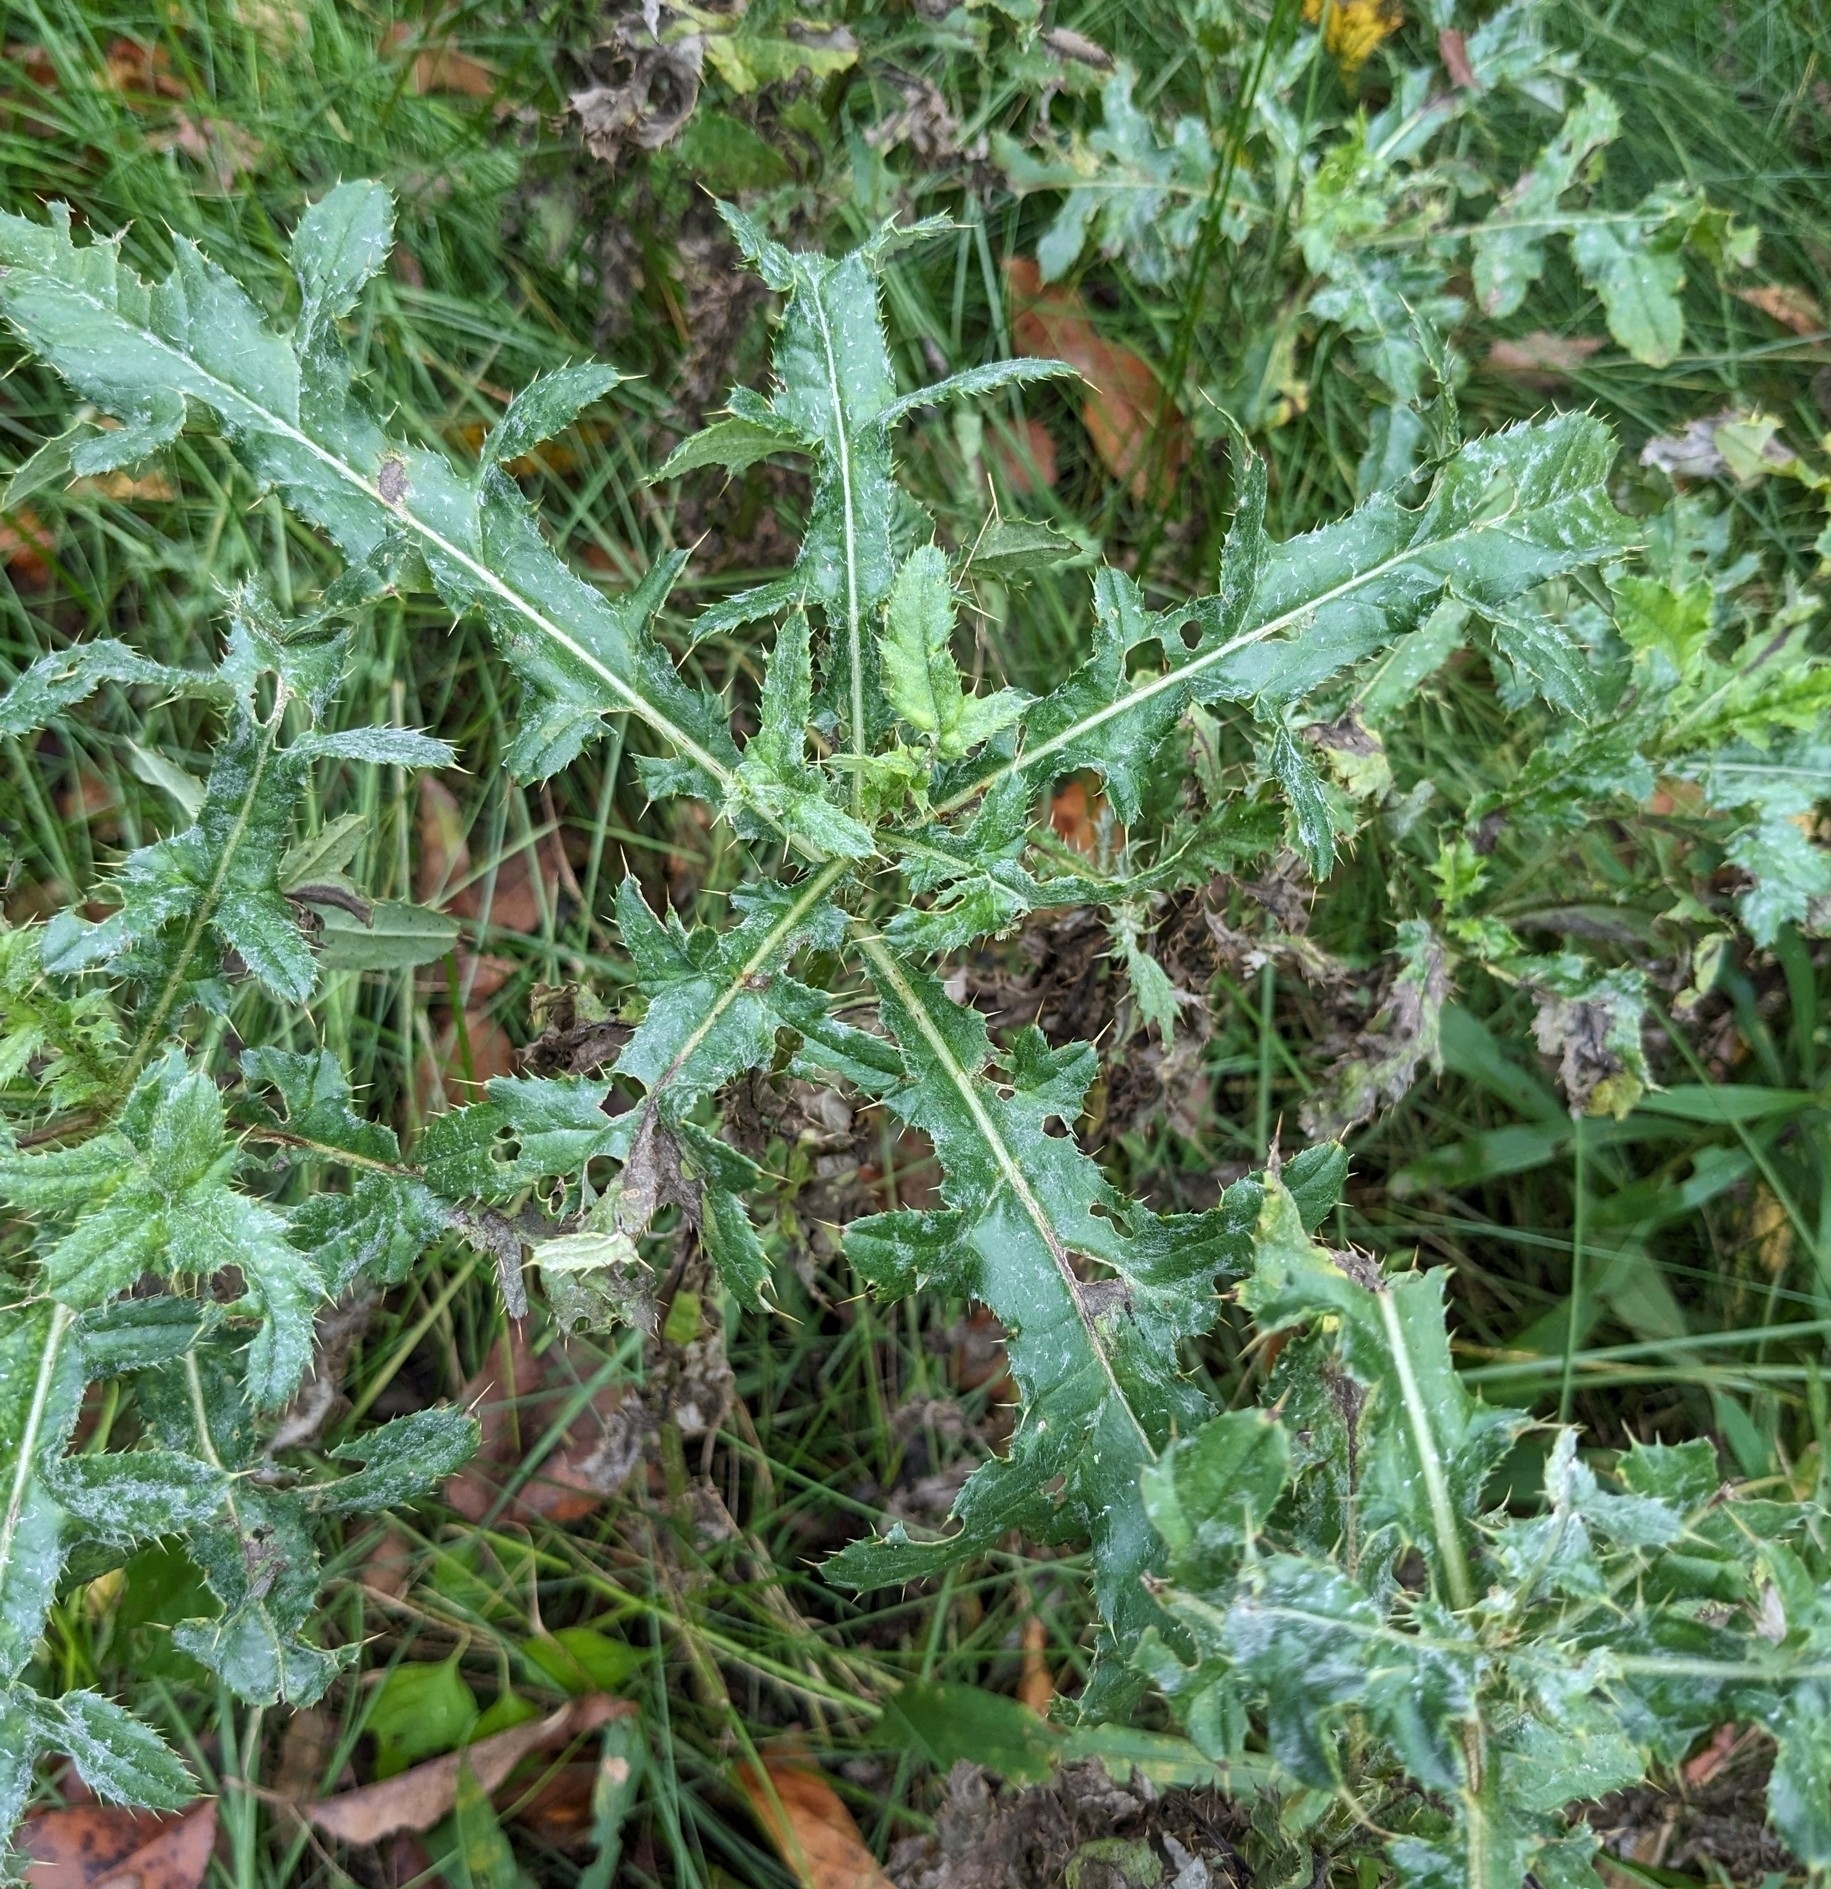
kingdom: Plantae
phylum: Tracheophyta
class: Magnoliopsida
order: Asterales
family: Asteraceae
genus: Cirsium
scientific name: Cirsium arvense
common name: Creeping thistle
